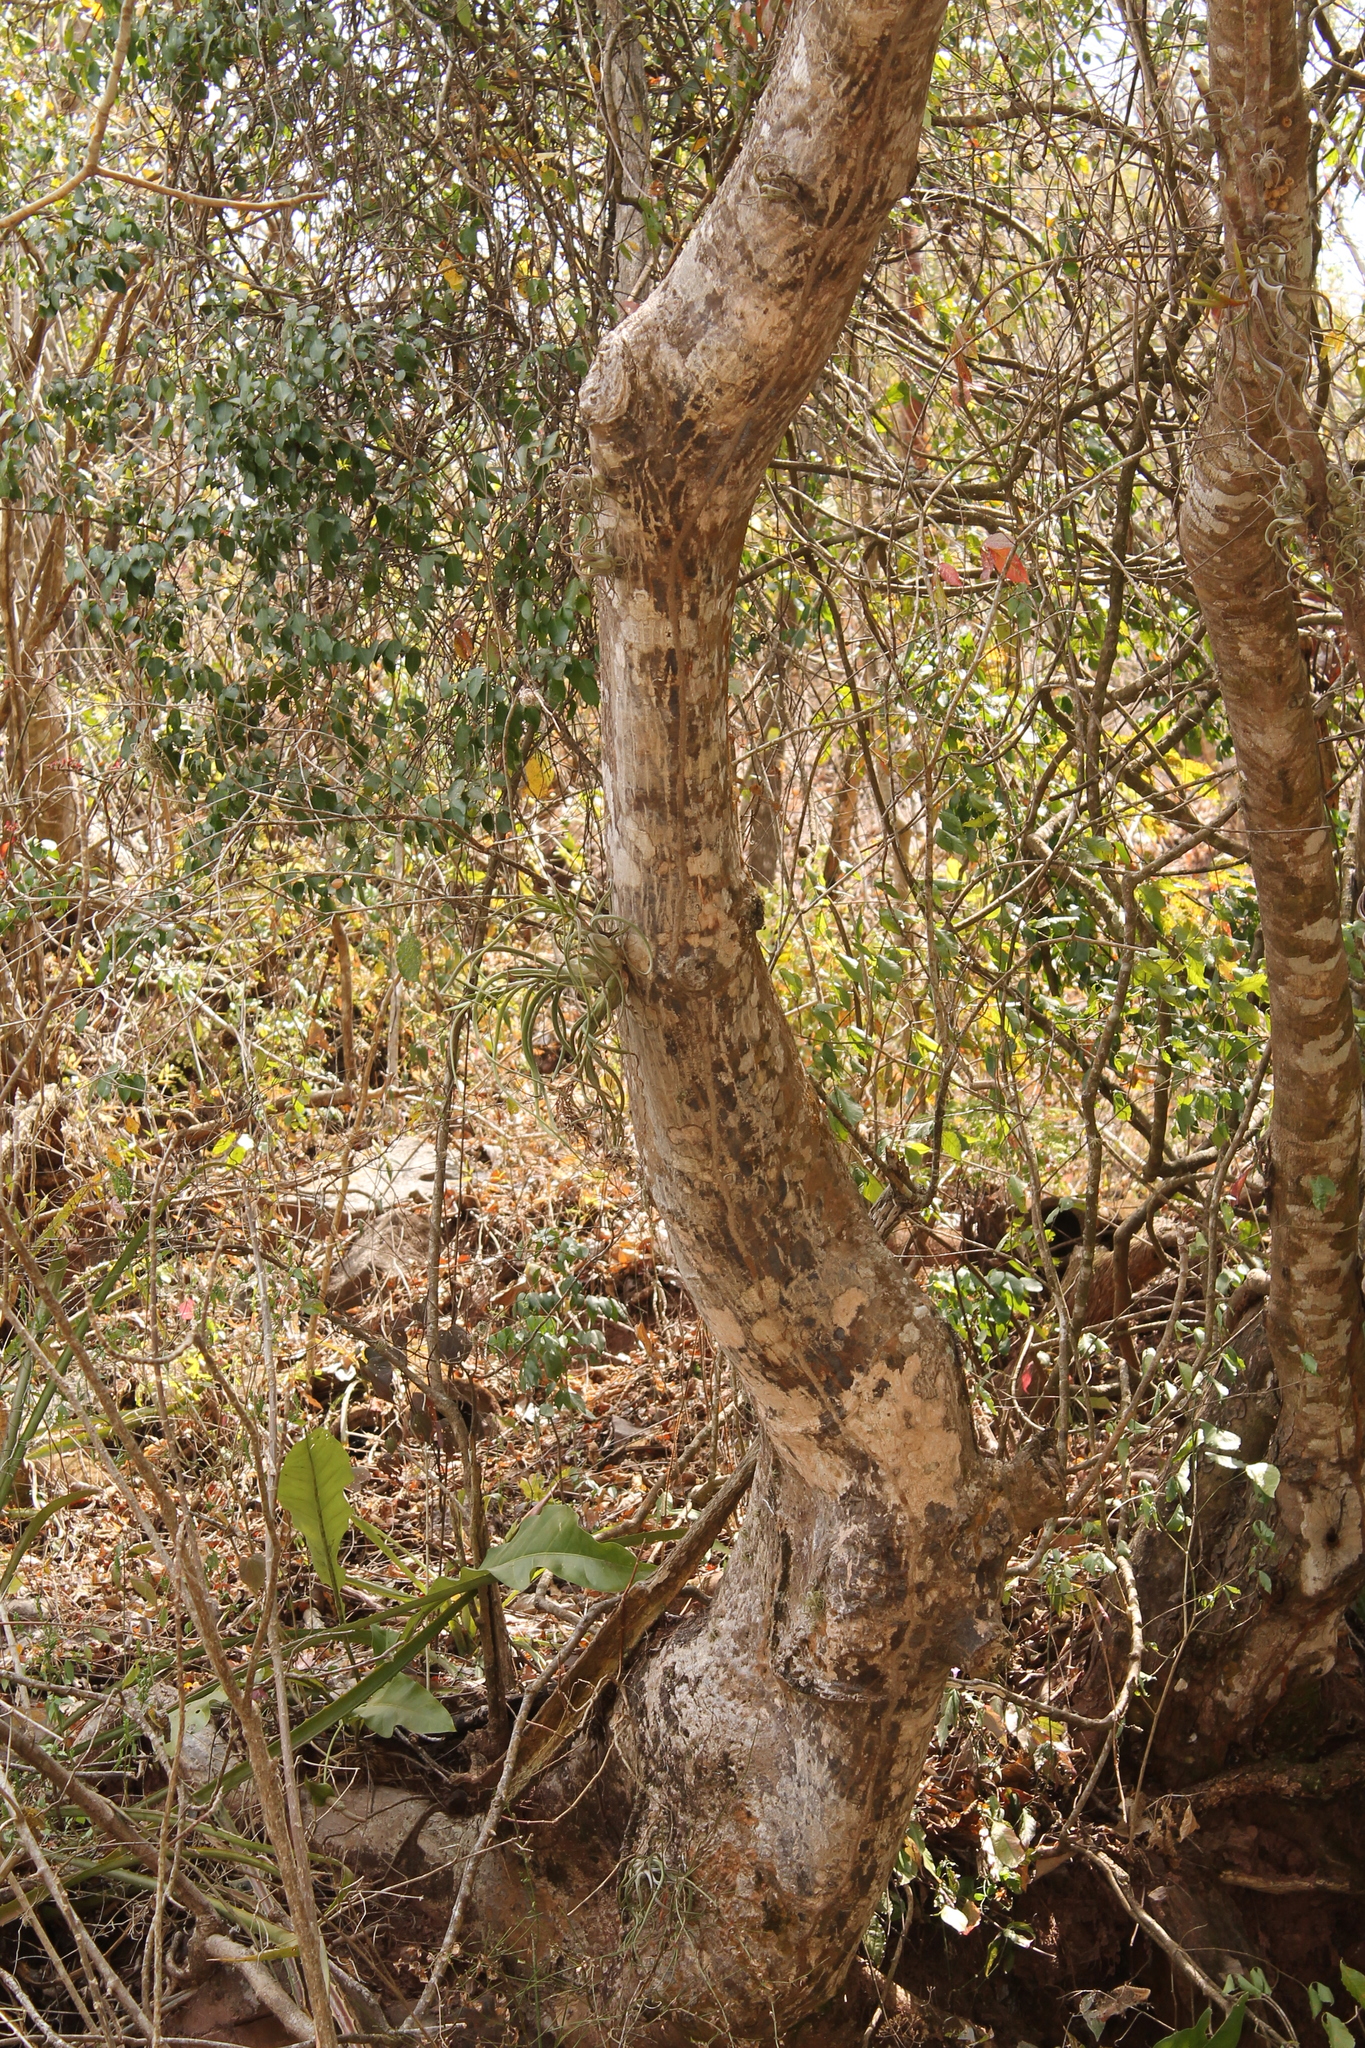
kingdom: Plantae
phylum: Tracheophyta
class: Magnoliopsida
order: Malvales
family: Malvaceae
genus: Pseudobombax
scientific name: Pseudobombax palmeri
